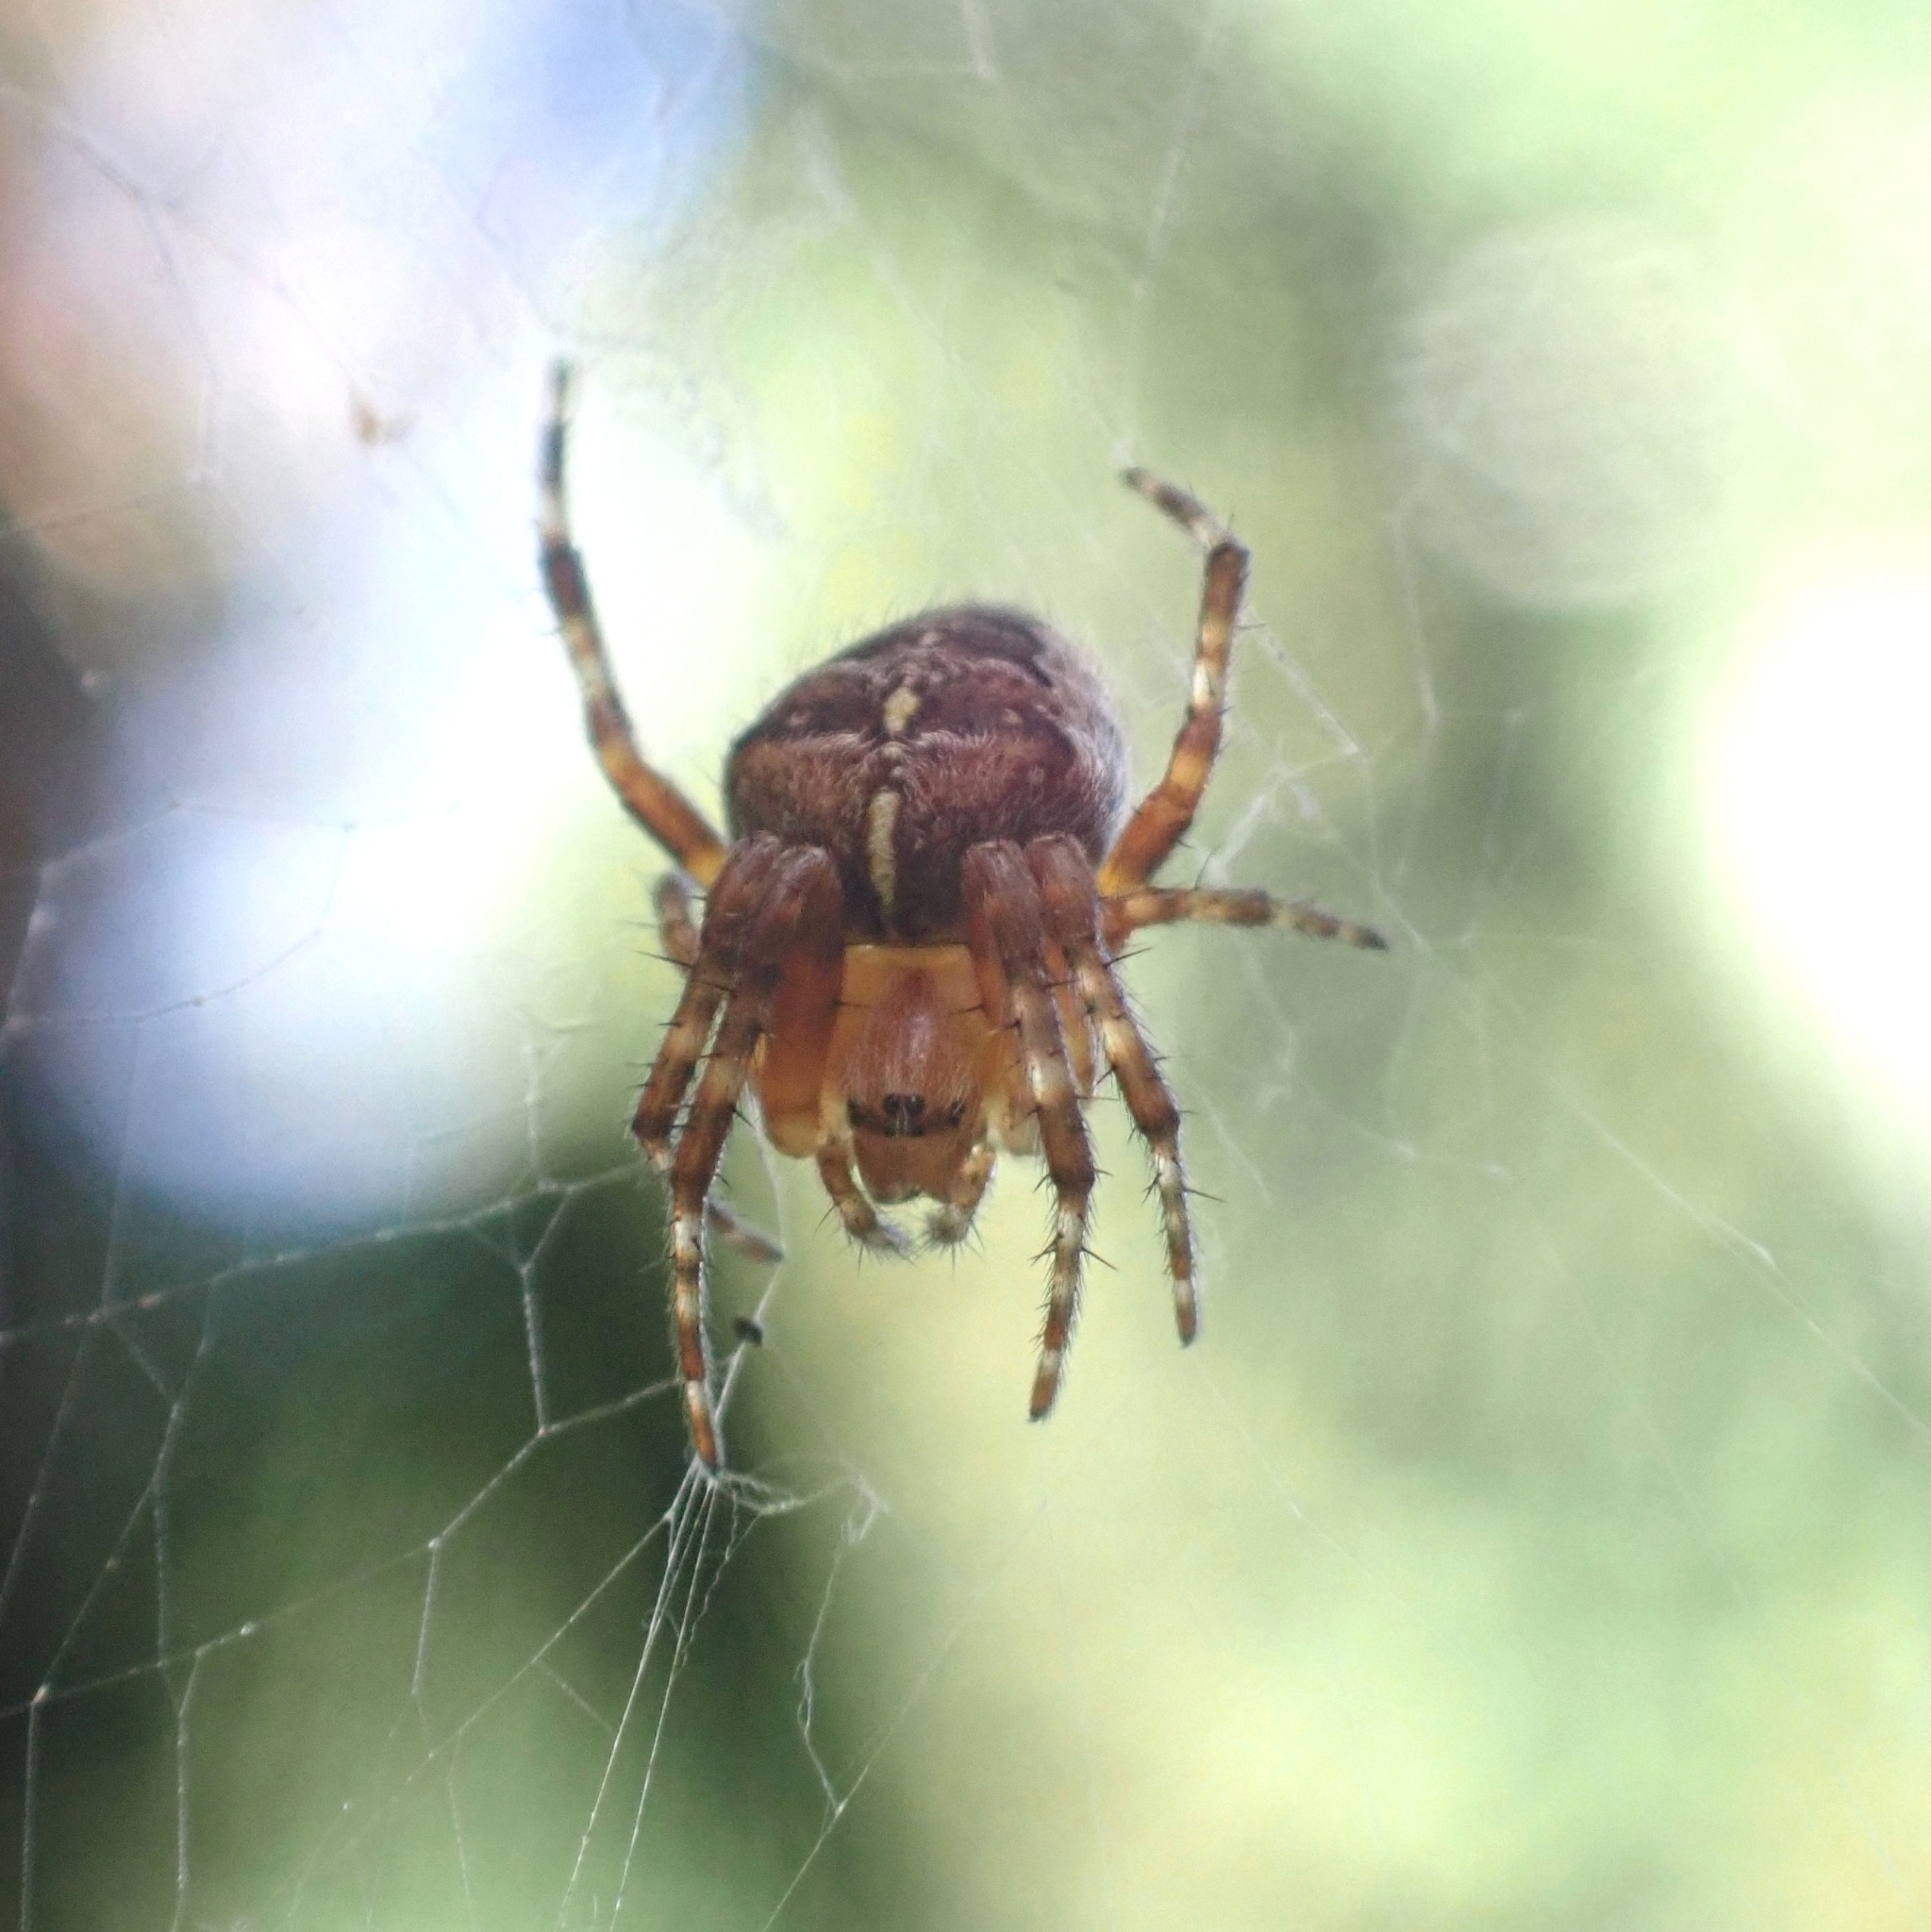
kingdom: Animalia
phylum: Arthropoda
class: Arachnida
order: Araneae
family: Araneidae
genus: Araneus
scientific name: Araneus diadematus
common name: Cross orbweaver
